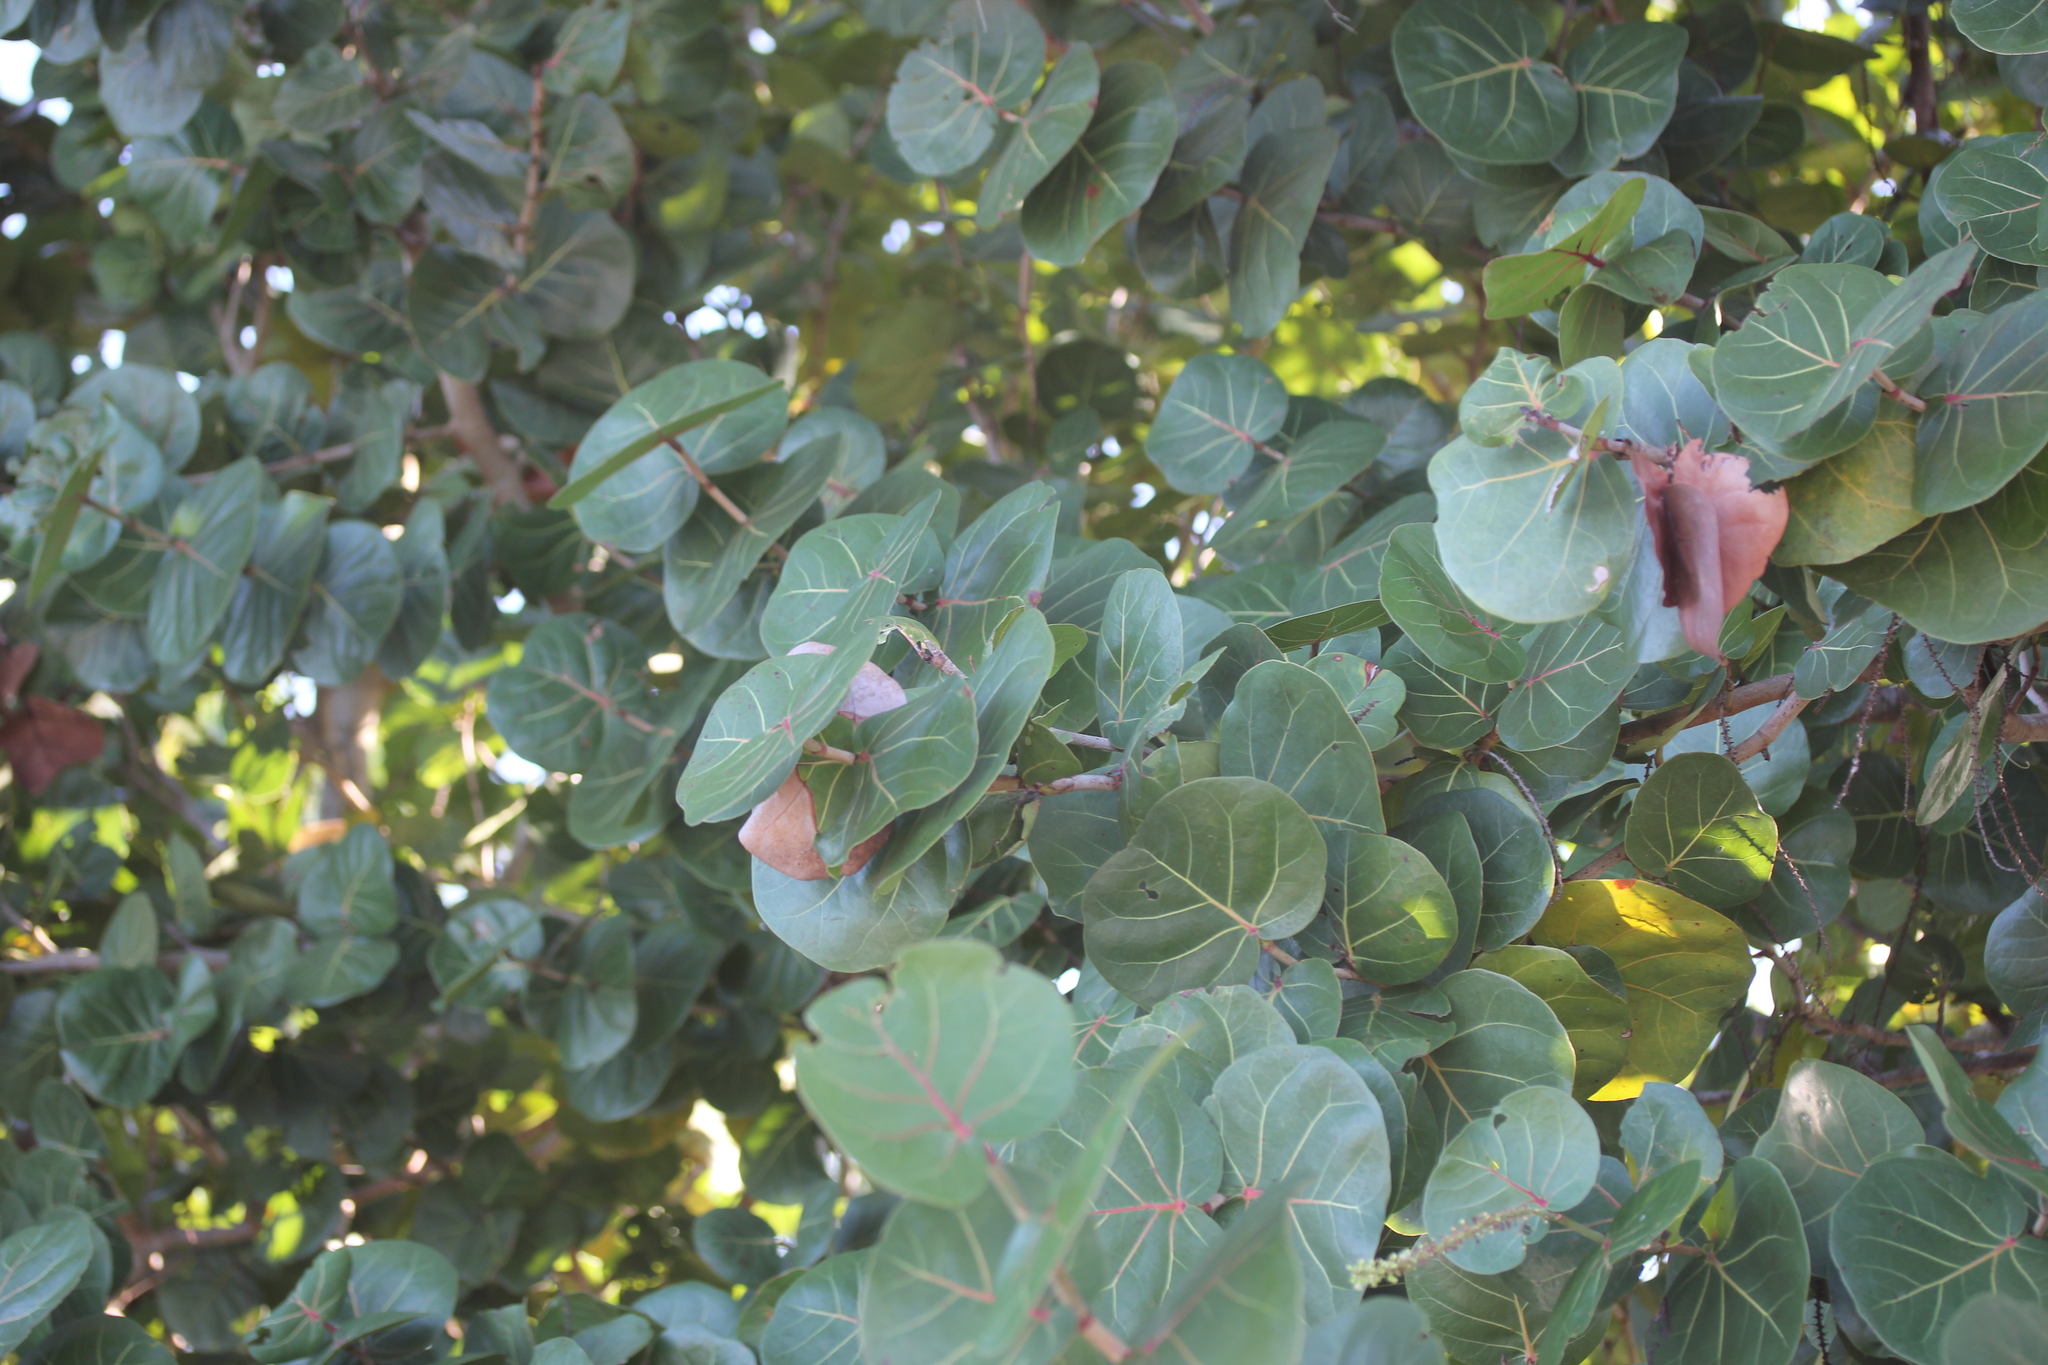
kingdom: Plantae
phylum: Tracheophyta
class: Magnoliopsida
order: Caryophyllales
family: Polygonaceae
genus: Coccoloba
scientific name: Coccoloba uvifera
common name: Seagrape
